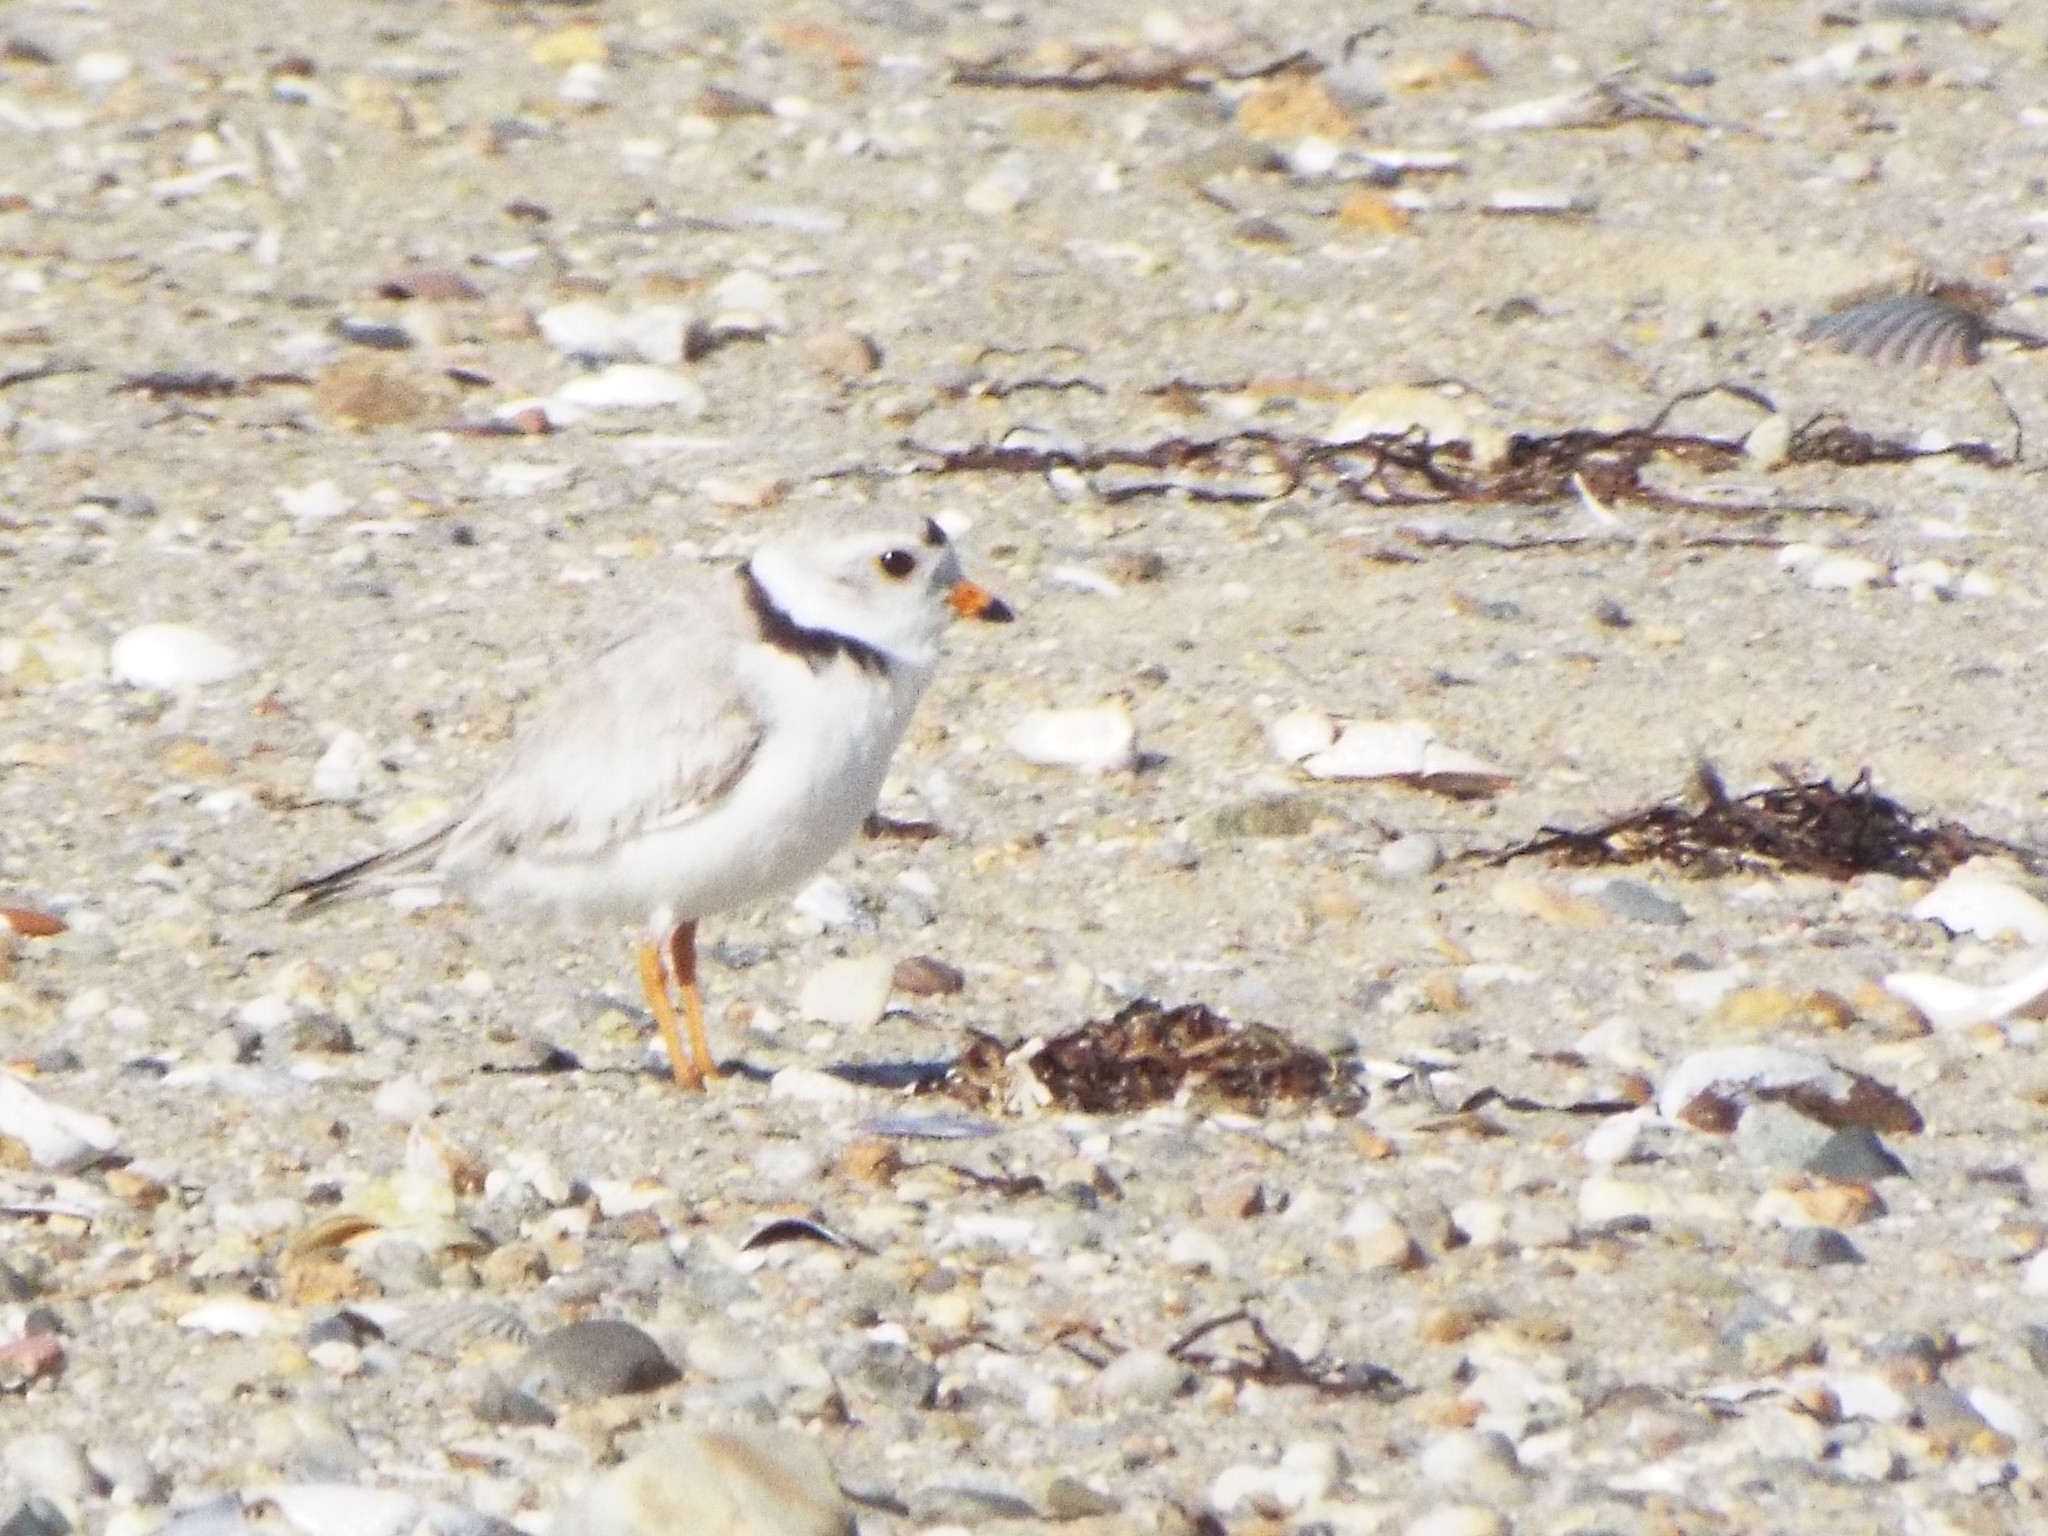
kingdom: Animalia
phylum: Chordata
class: Aves
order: Charadriiformes
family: Charadriidae
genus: Charadrius
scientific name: Charadrius melodus
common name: Piping plover
